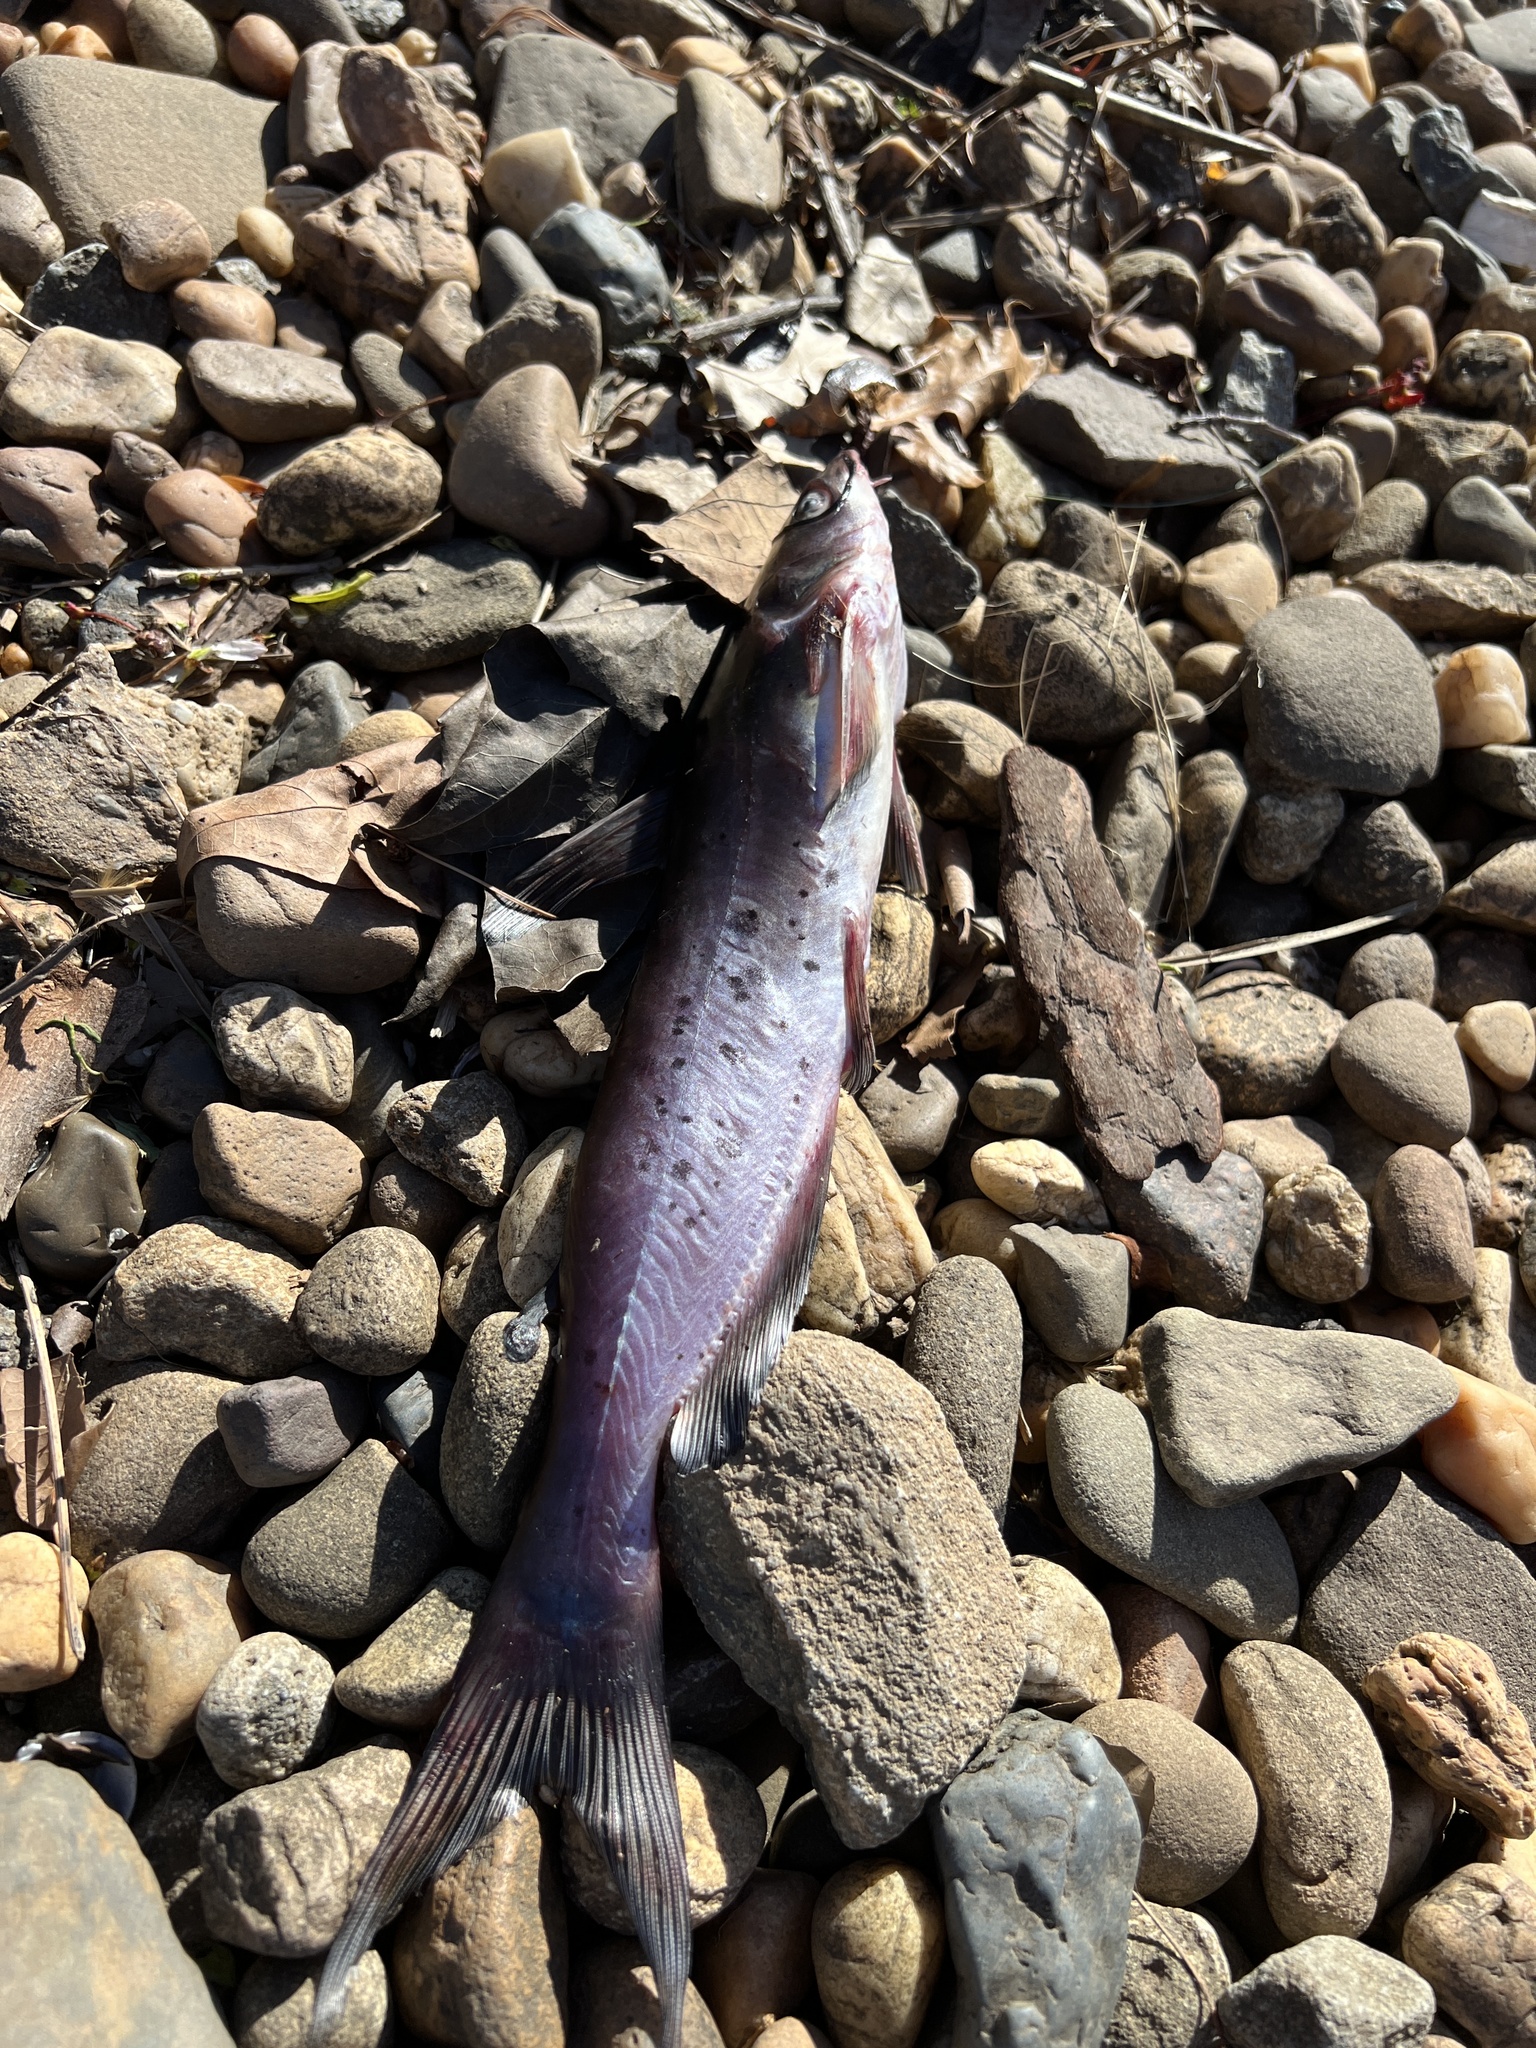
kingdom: Animalia
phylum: Chordata
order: Siluriformes
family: Ictaluridae
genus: Ictalurus
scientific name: Ictalurus punctatus
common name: Channel catfish
